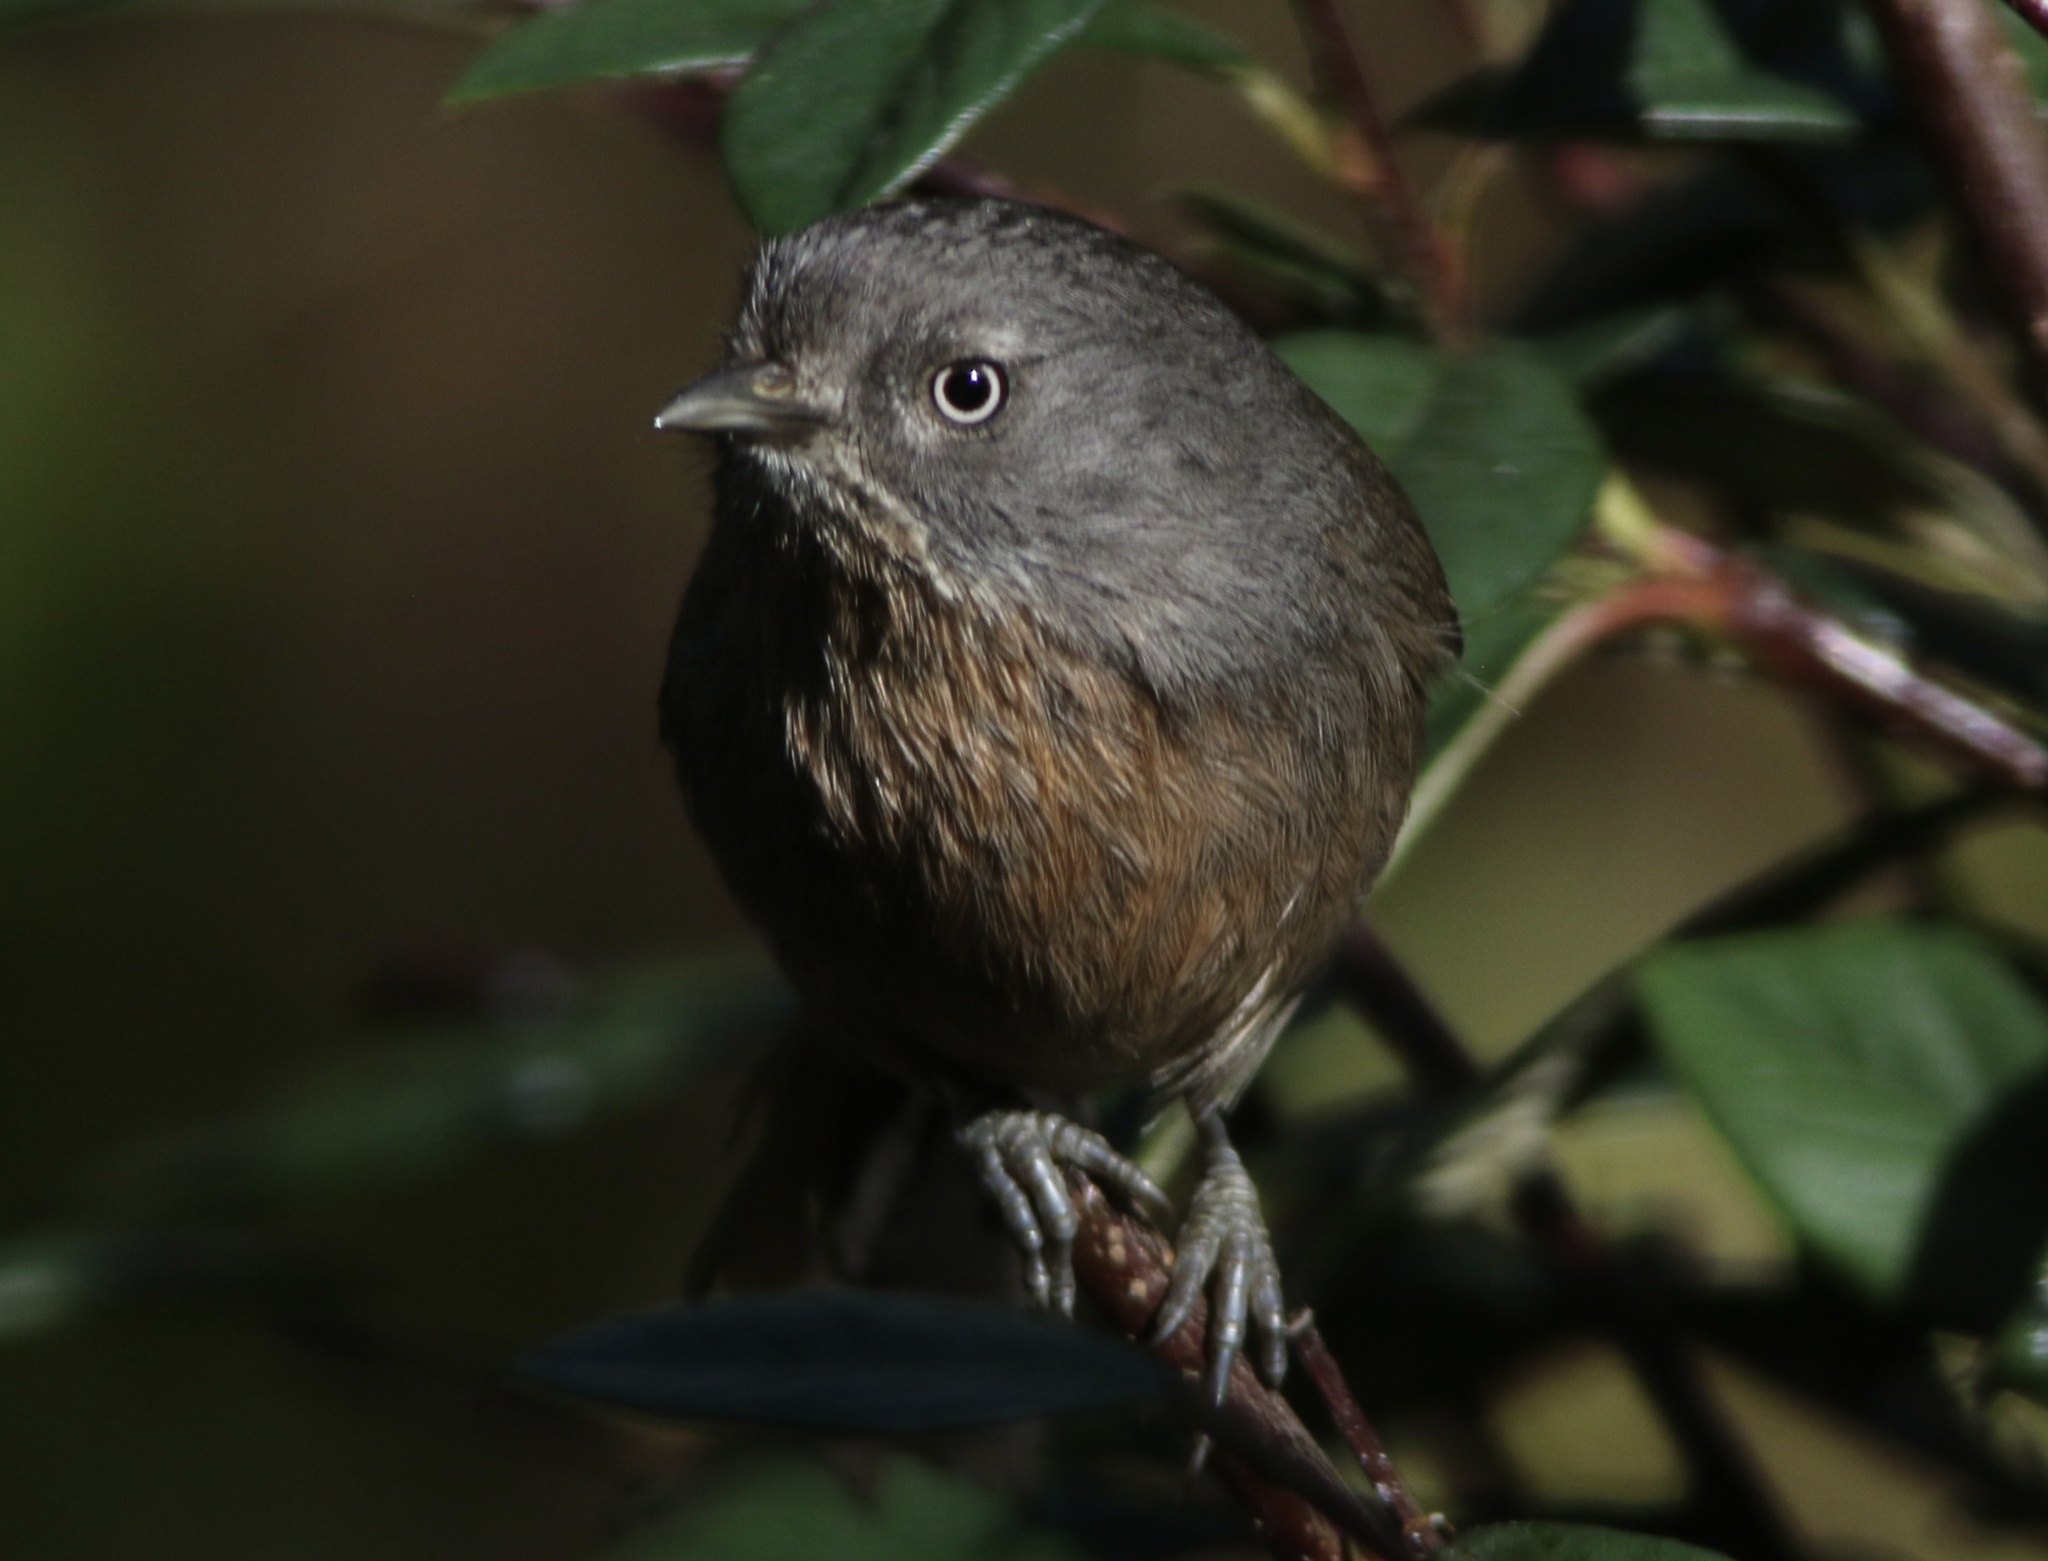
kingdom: Animalia
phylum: Chordata
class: Aves
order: Passeriformes
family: Sylviidae
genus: Chamaea
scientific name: Chamaea fasciata
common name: Wrentit
